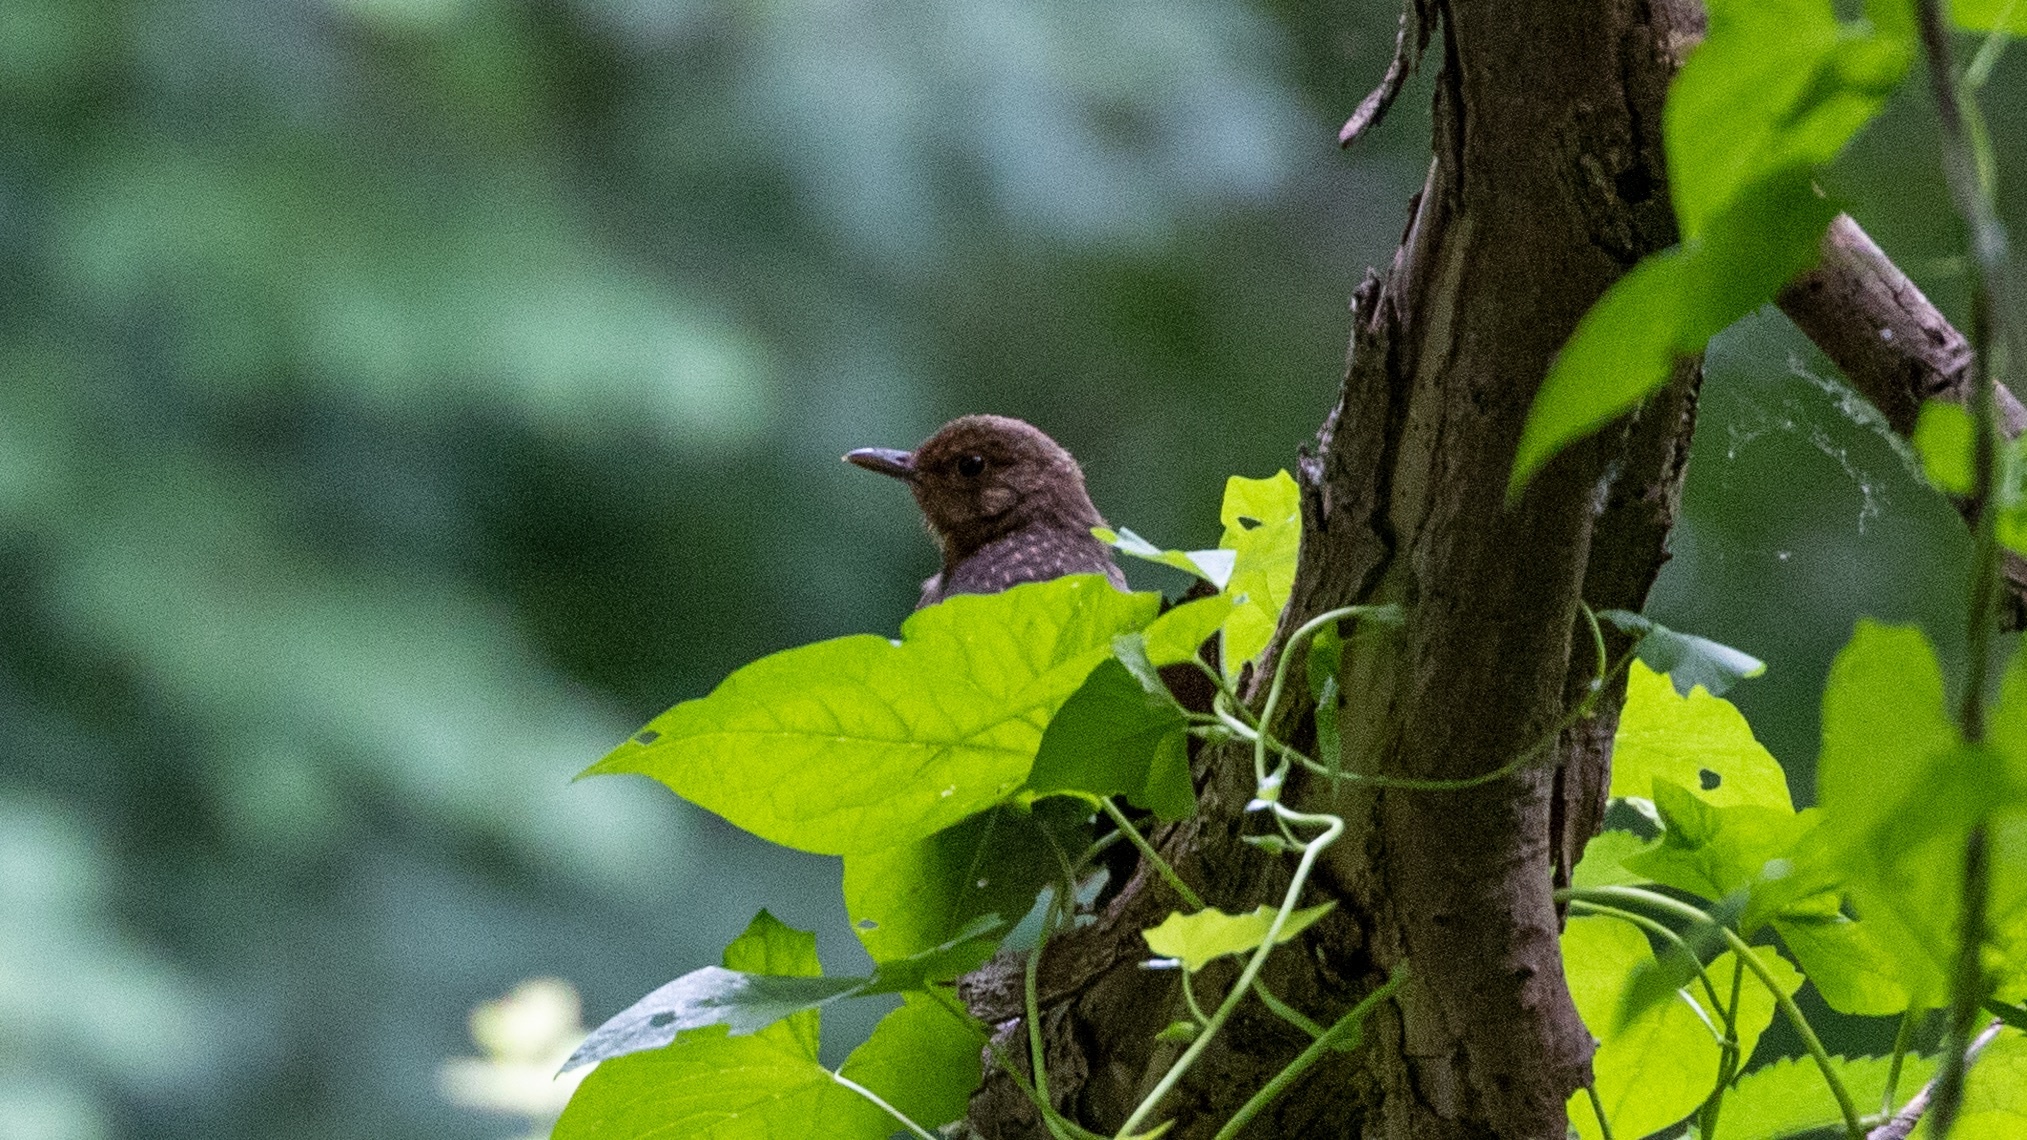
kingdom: Animalia
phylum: Chordata
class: Aves
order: Passeriformes
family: Turdidae
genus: Turdus
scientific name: Turdus merula
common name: Common blackbird
